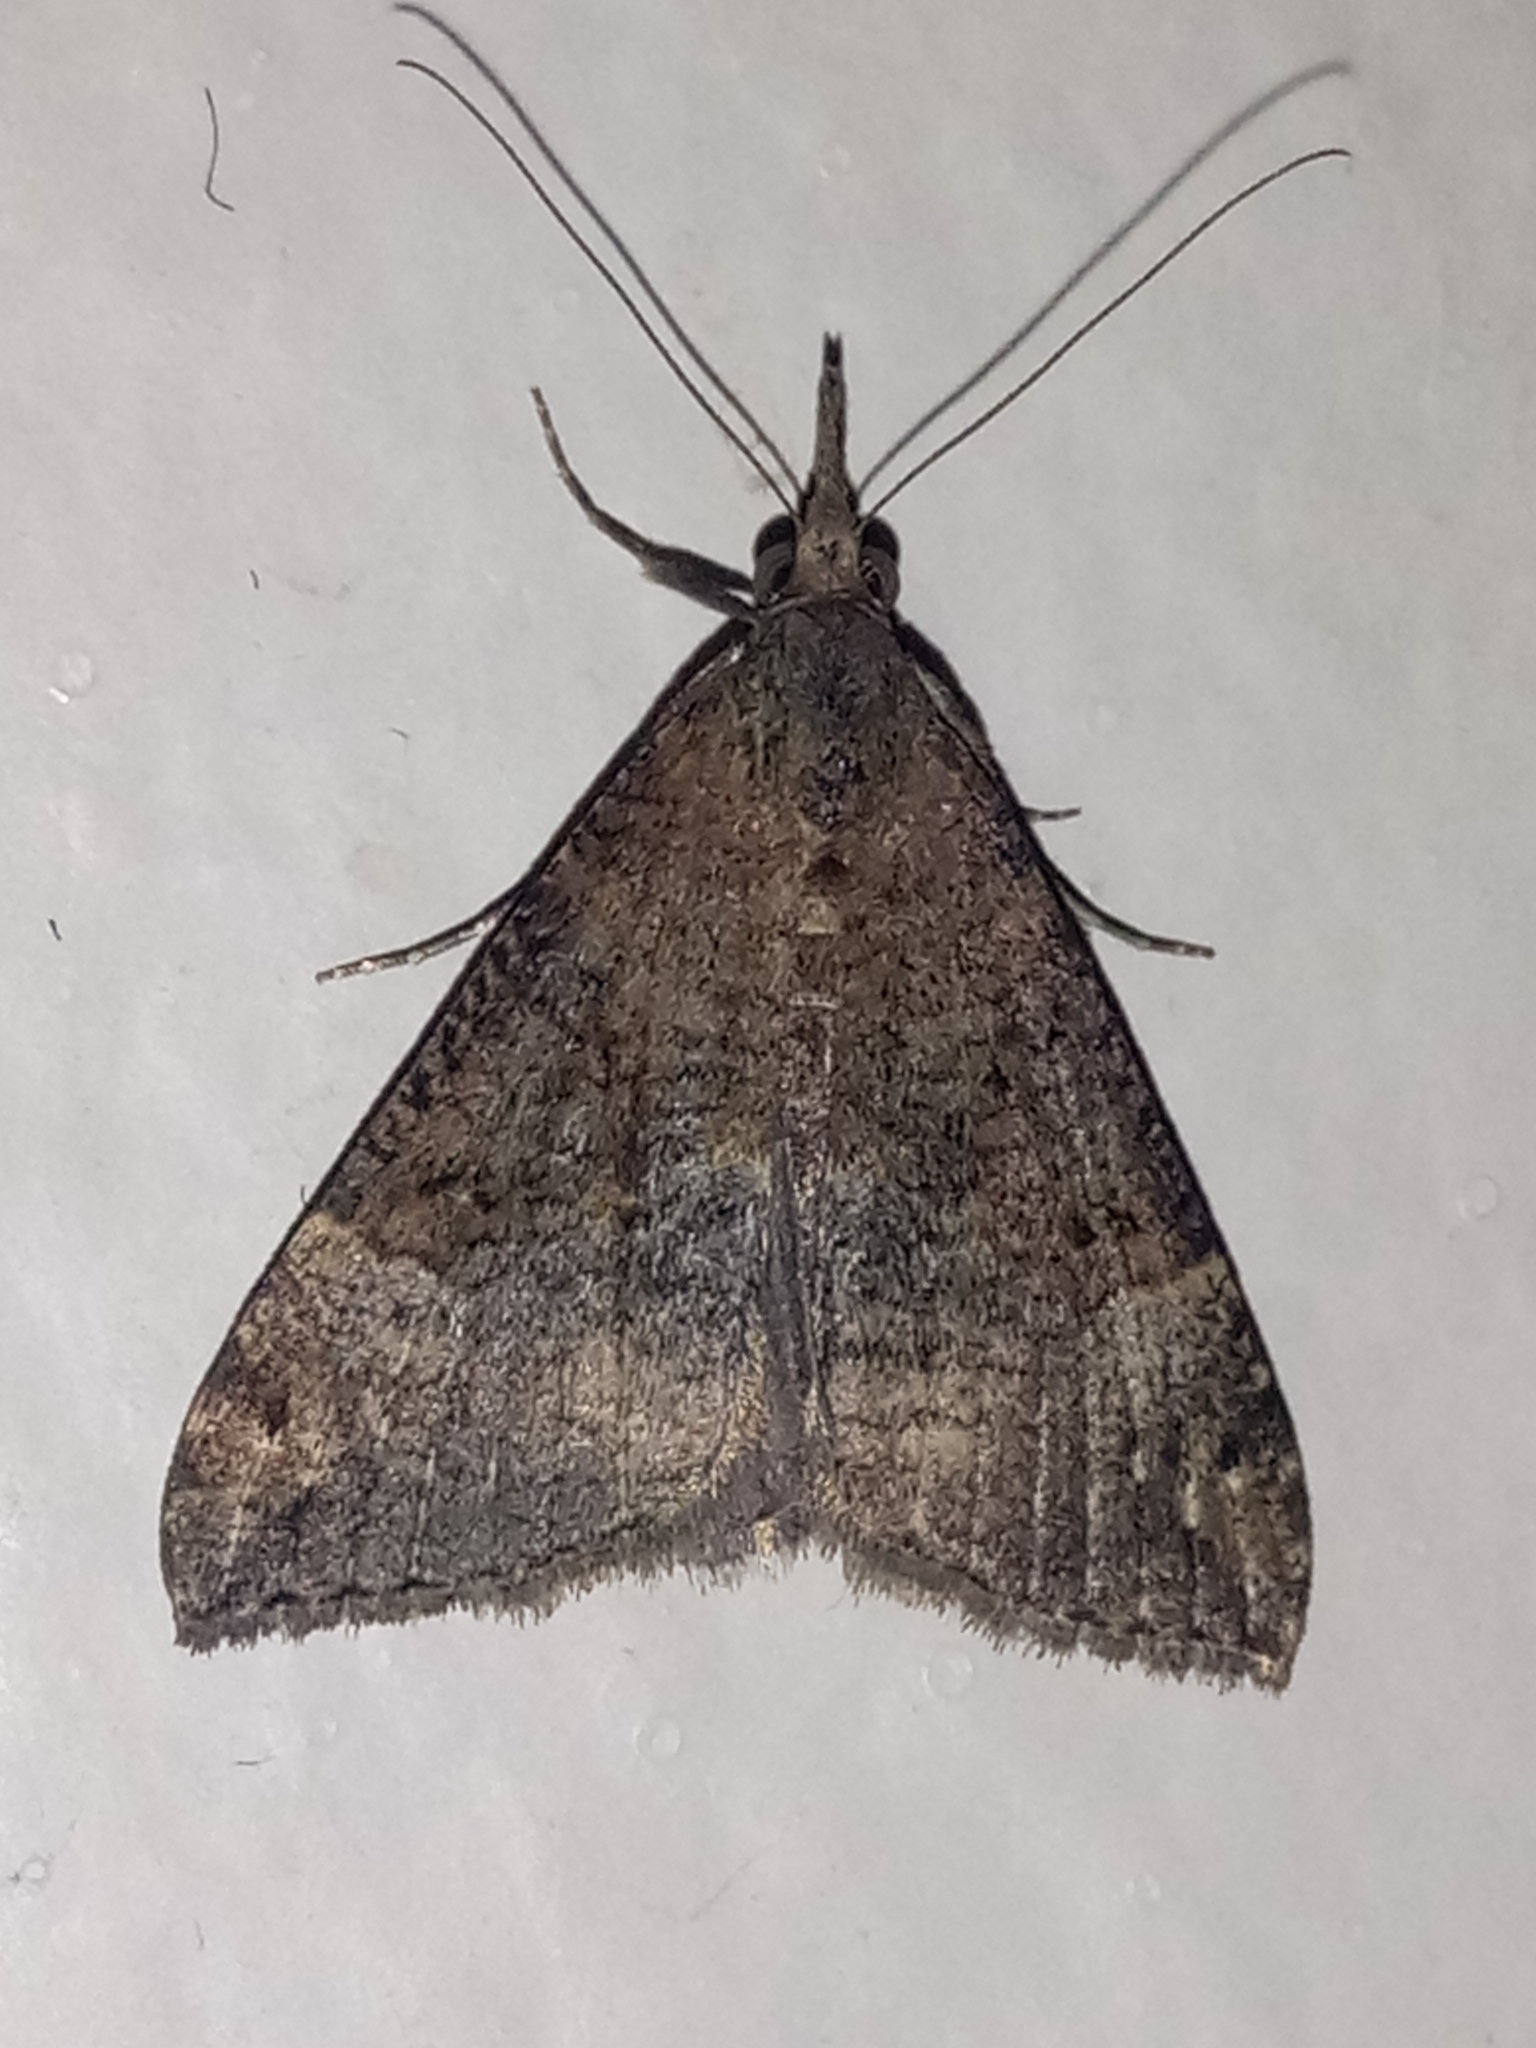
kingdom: Animalia
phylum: Arthropoda
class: Insecta
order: Lepidoptera
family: Erebidae
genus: Hypena
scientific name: Hypena obsitalis
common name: Bloxworth snout
